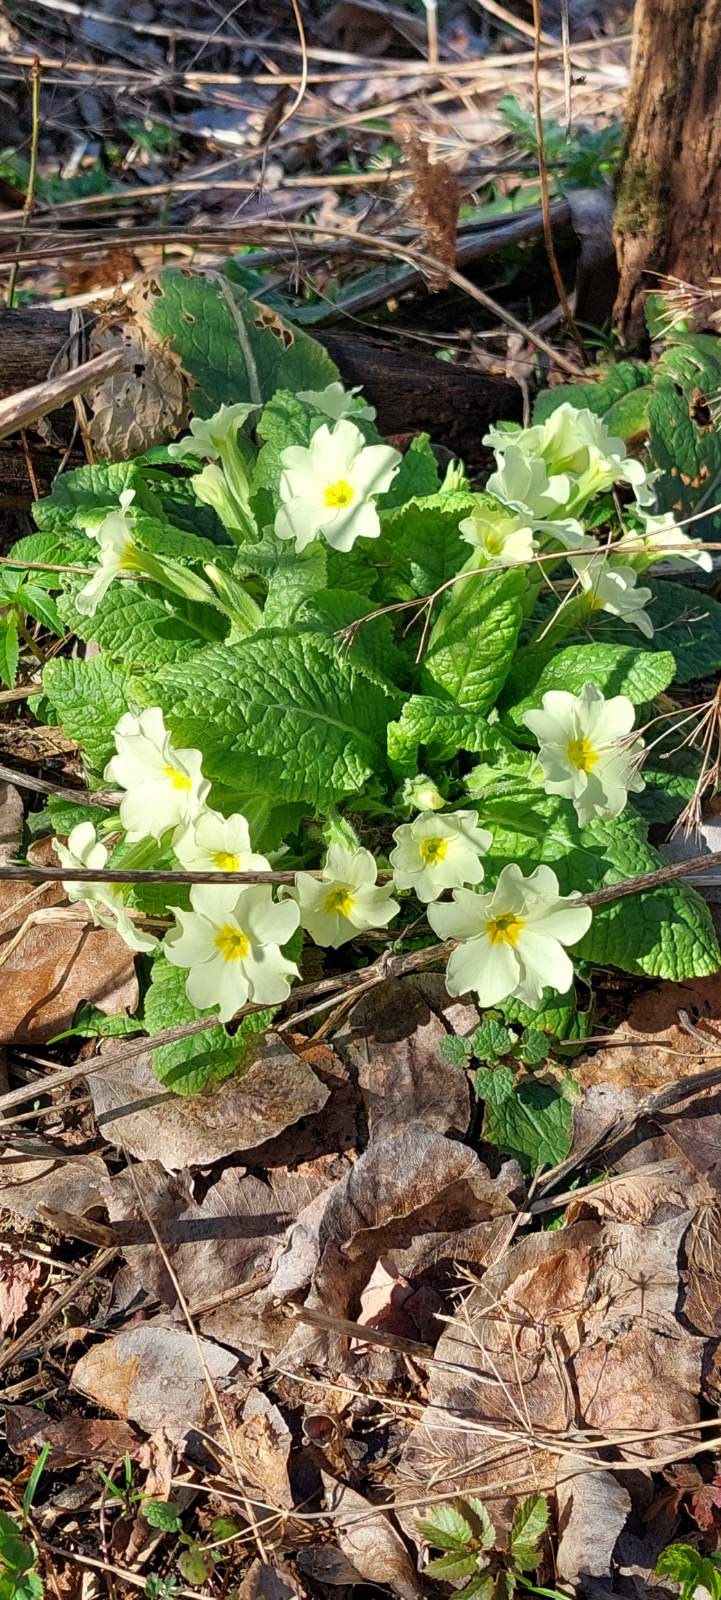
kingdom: Plantae
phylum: Tracheophyta
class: Magnoliopsida
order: Ericales
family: Primulaceae
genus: Primula
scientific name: Primula vulgaris
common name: Primrose
